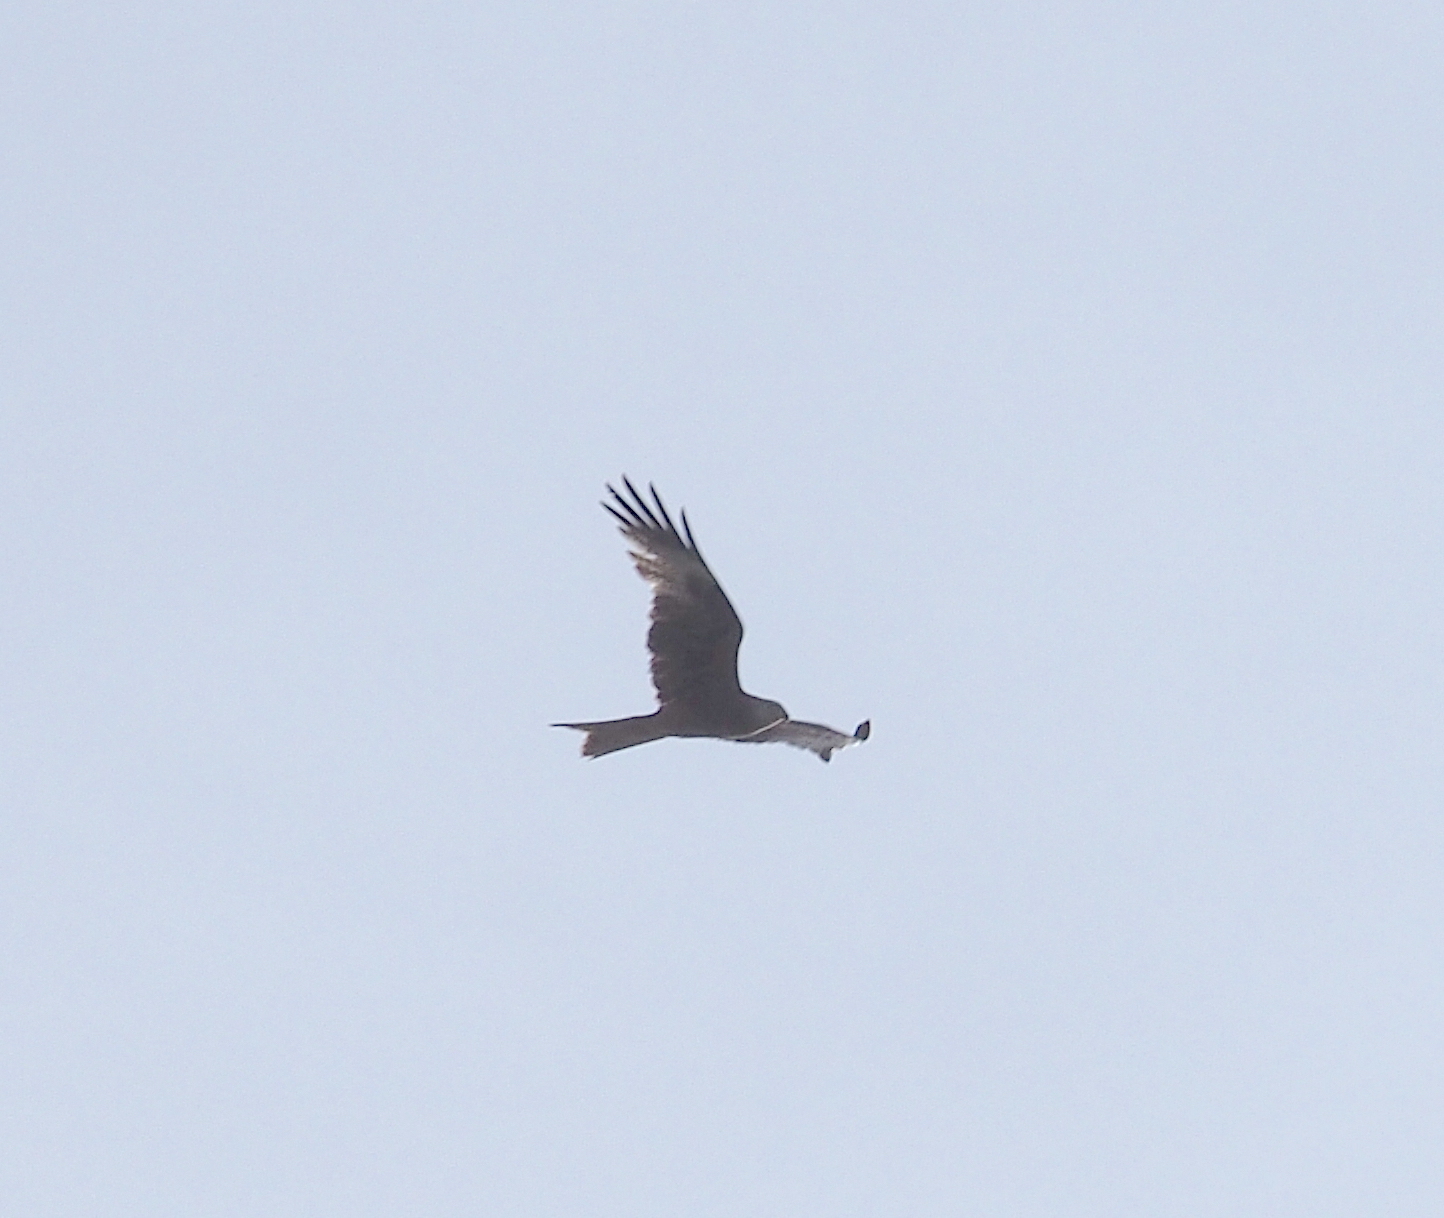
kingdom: Animalia
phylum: Chordata
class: Aves
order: Accipitriformes
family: Accipitridae
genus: Milvus
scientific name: Milvus milvus
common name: Red kite
